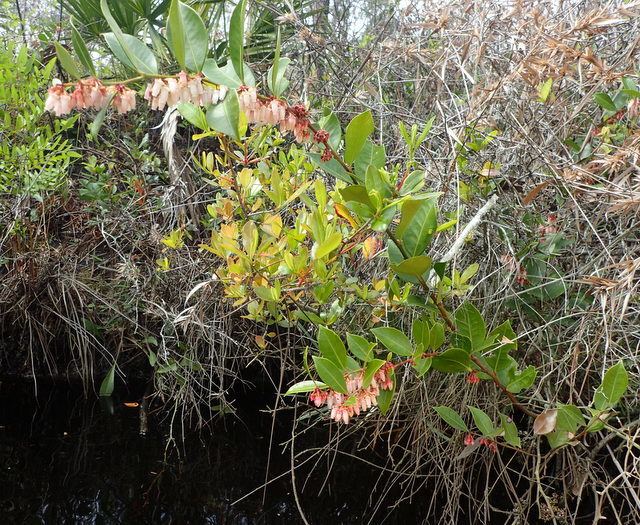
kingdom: Plantae
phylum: Tracheophyta
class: Magnoliopsida
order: Ericales
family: Ericaceae
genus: Lyonia
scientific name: Lyonia lucida
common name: Fetterbush
